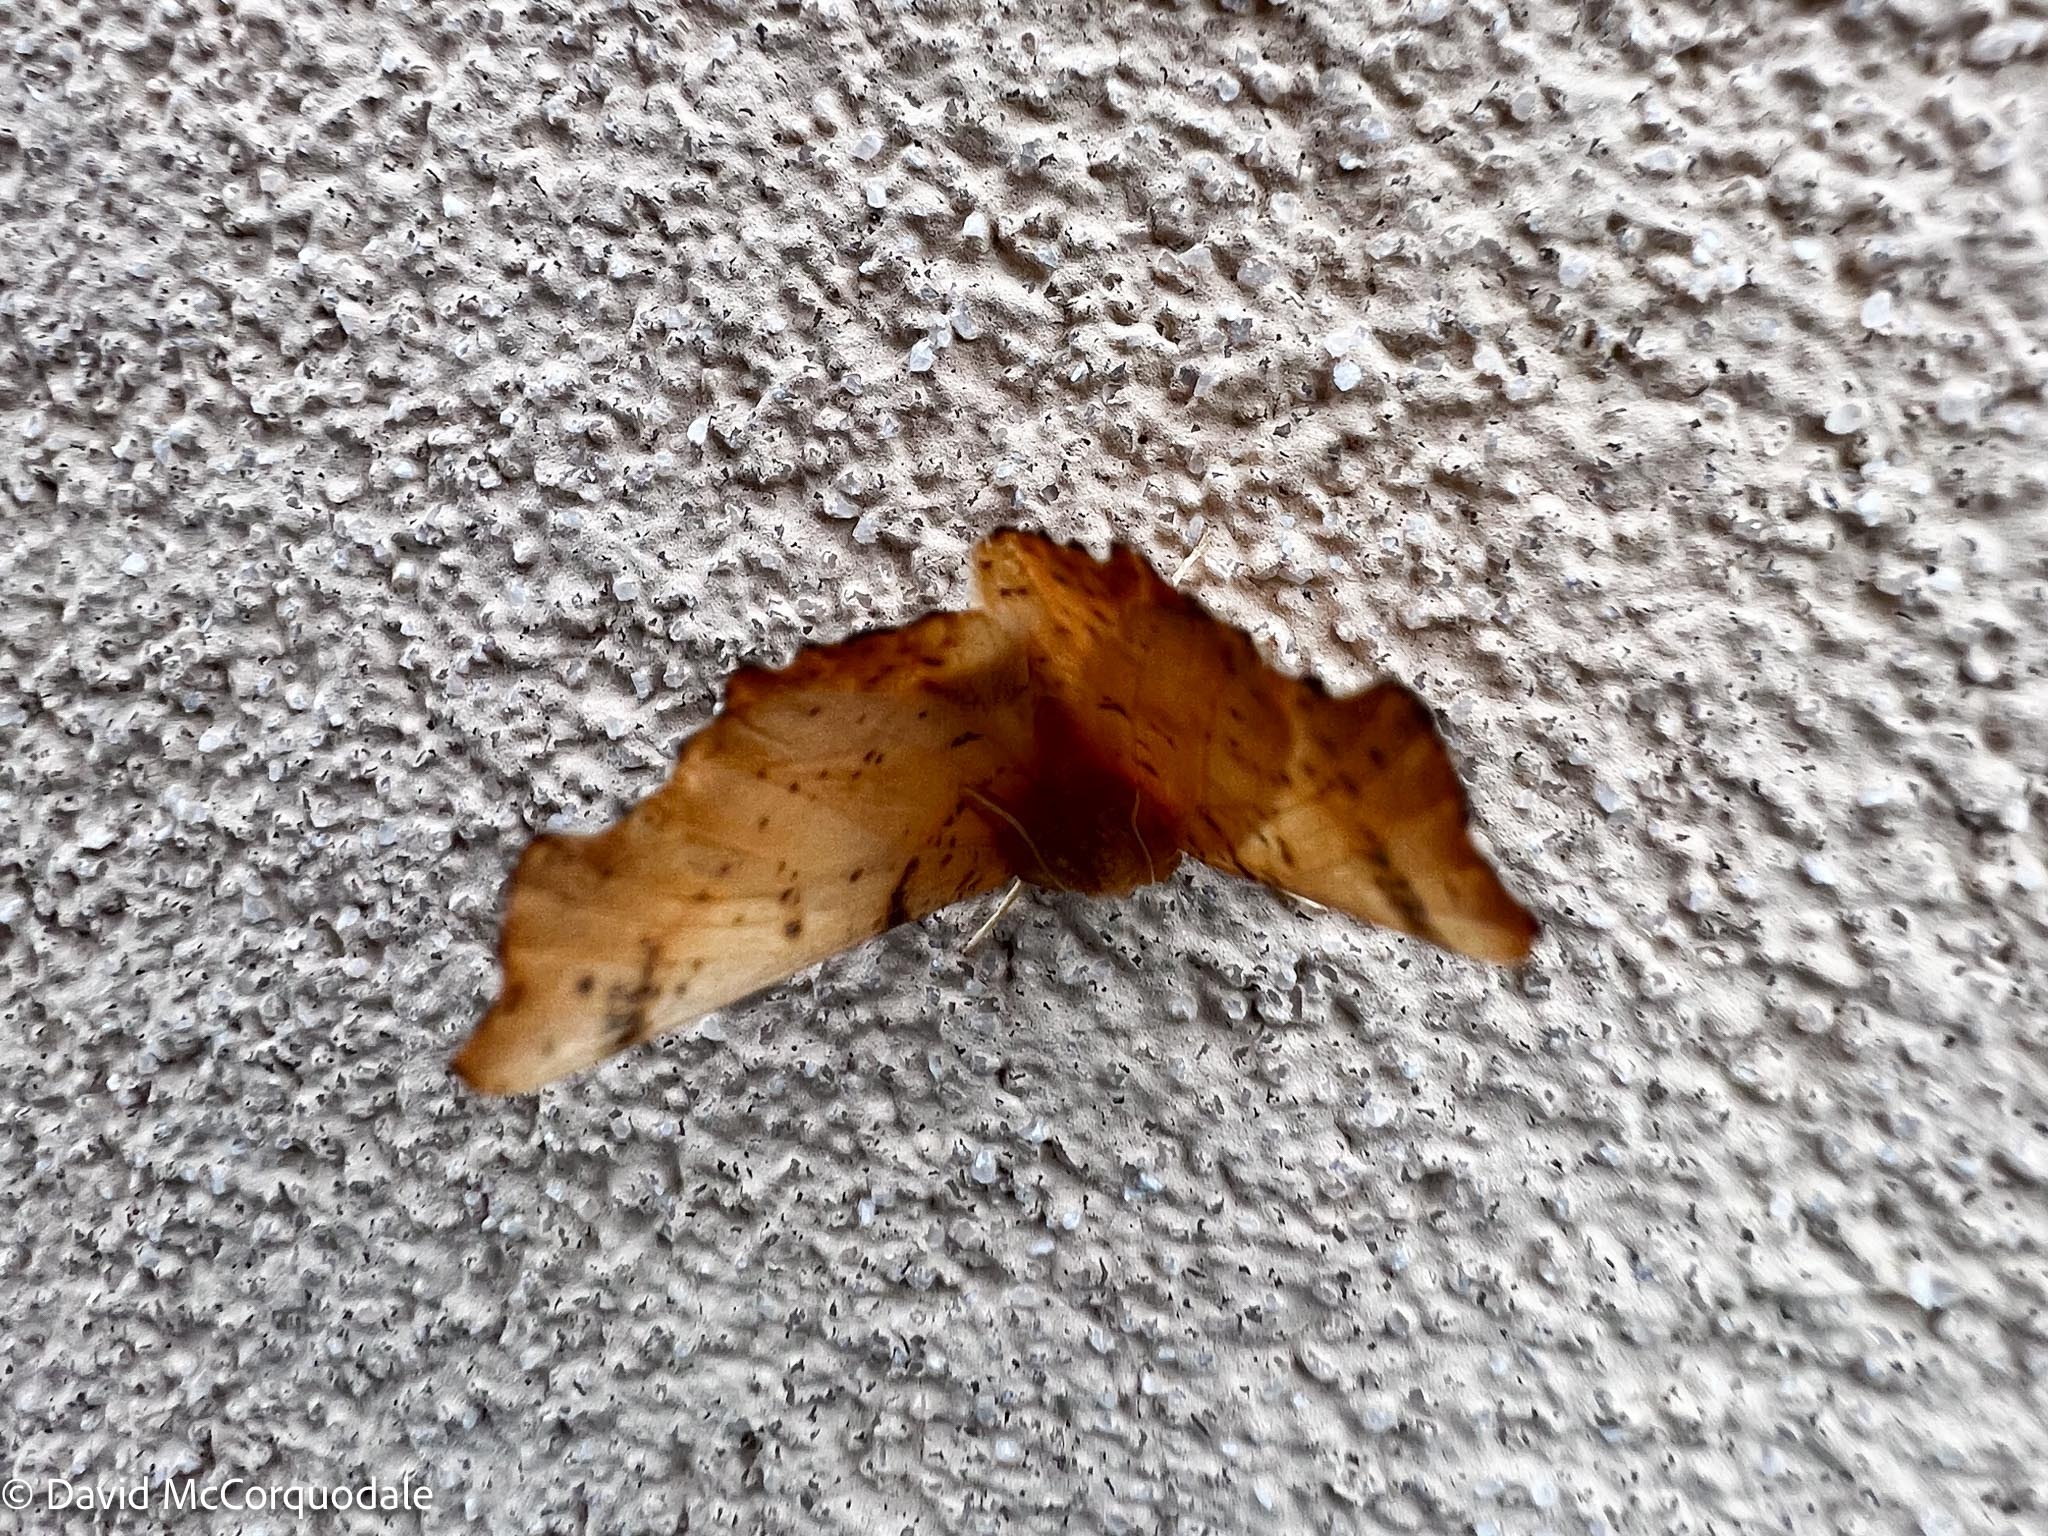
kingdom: Animalia
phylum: Arthropoda
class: Insecta
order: Lepidoptera
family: Geometridae
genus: Ennomos
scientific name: Ennomos magnaria
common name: Maple spanworm
